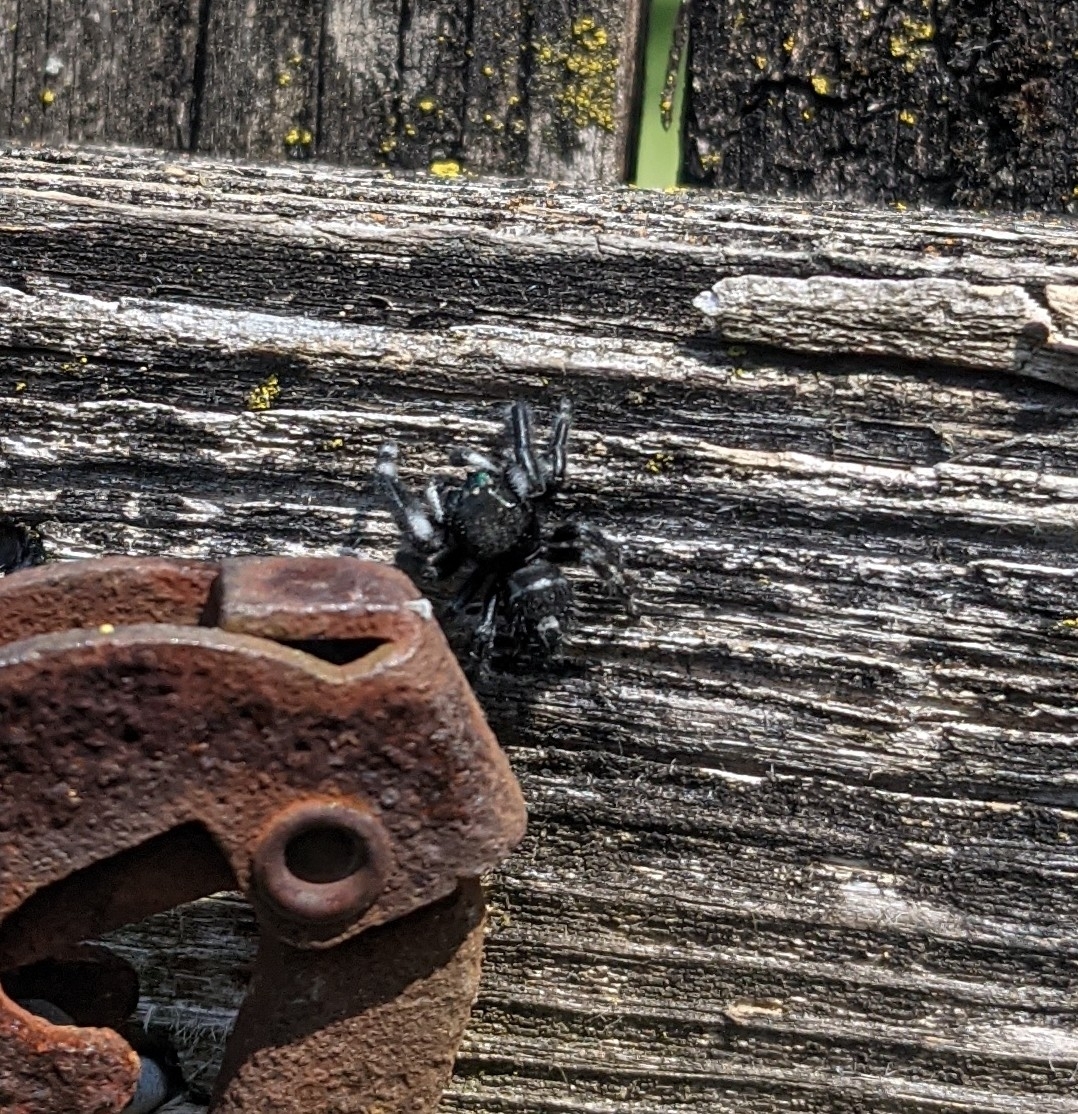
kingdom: Animalia
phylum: Arthropoda
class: Arachnida
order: Araneae
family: Salticidae
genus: Phidippus
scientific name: Phidippus audax
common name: Bold jumper
